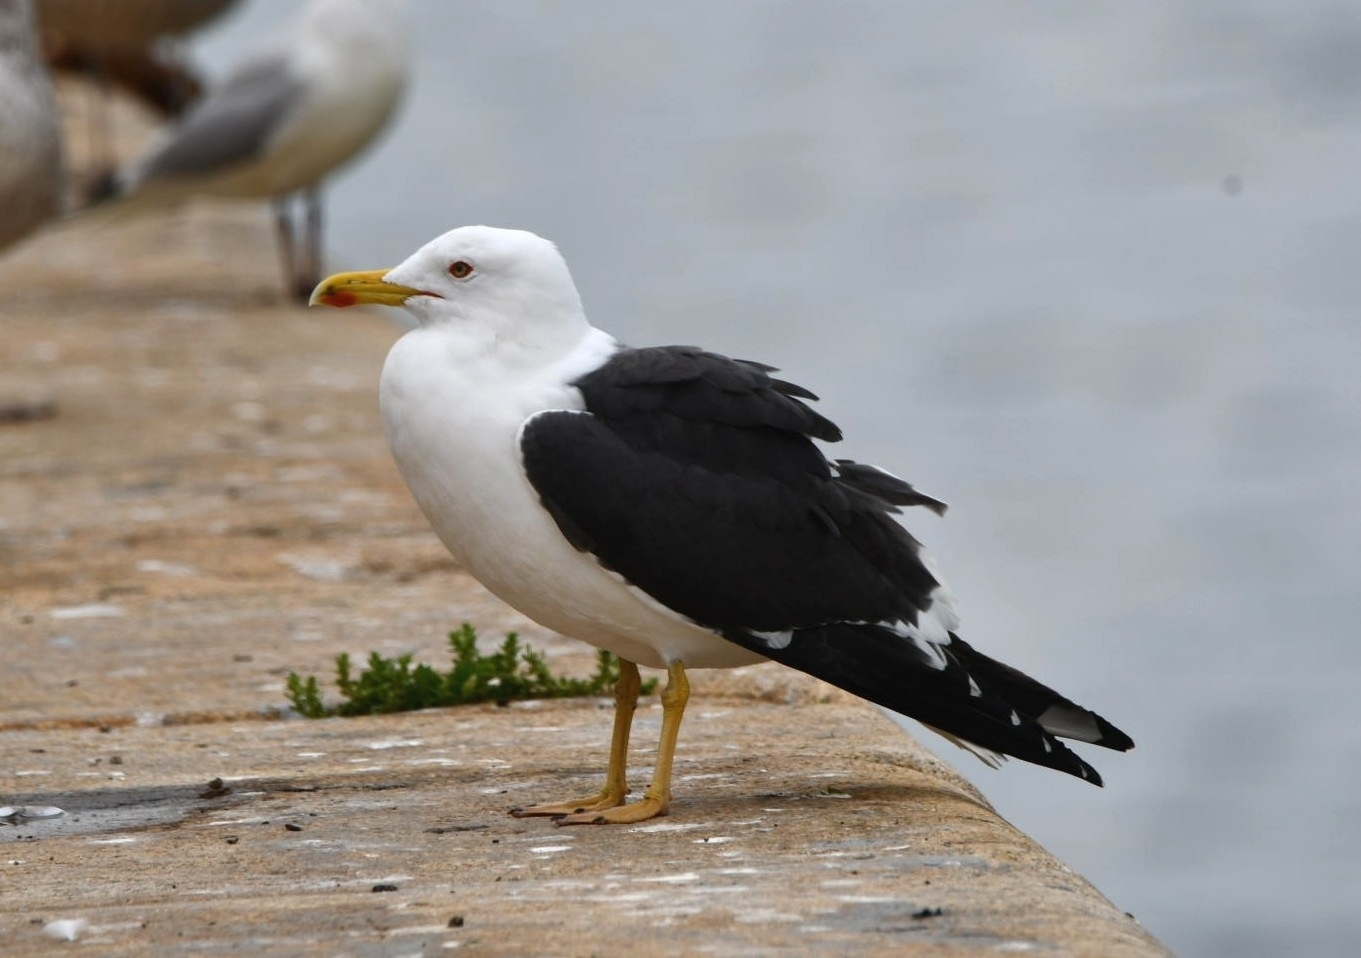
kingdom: Animalia
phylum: Chordata
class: Aves
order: Charadriiformes
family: Laridae
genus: Larus
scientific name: Larus fuscus
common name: Lesser black-backed gull
